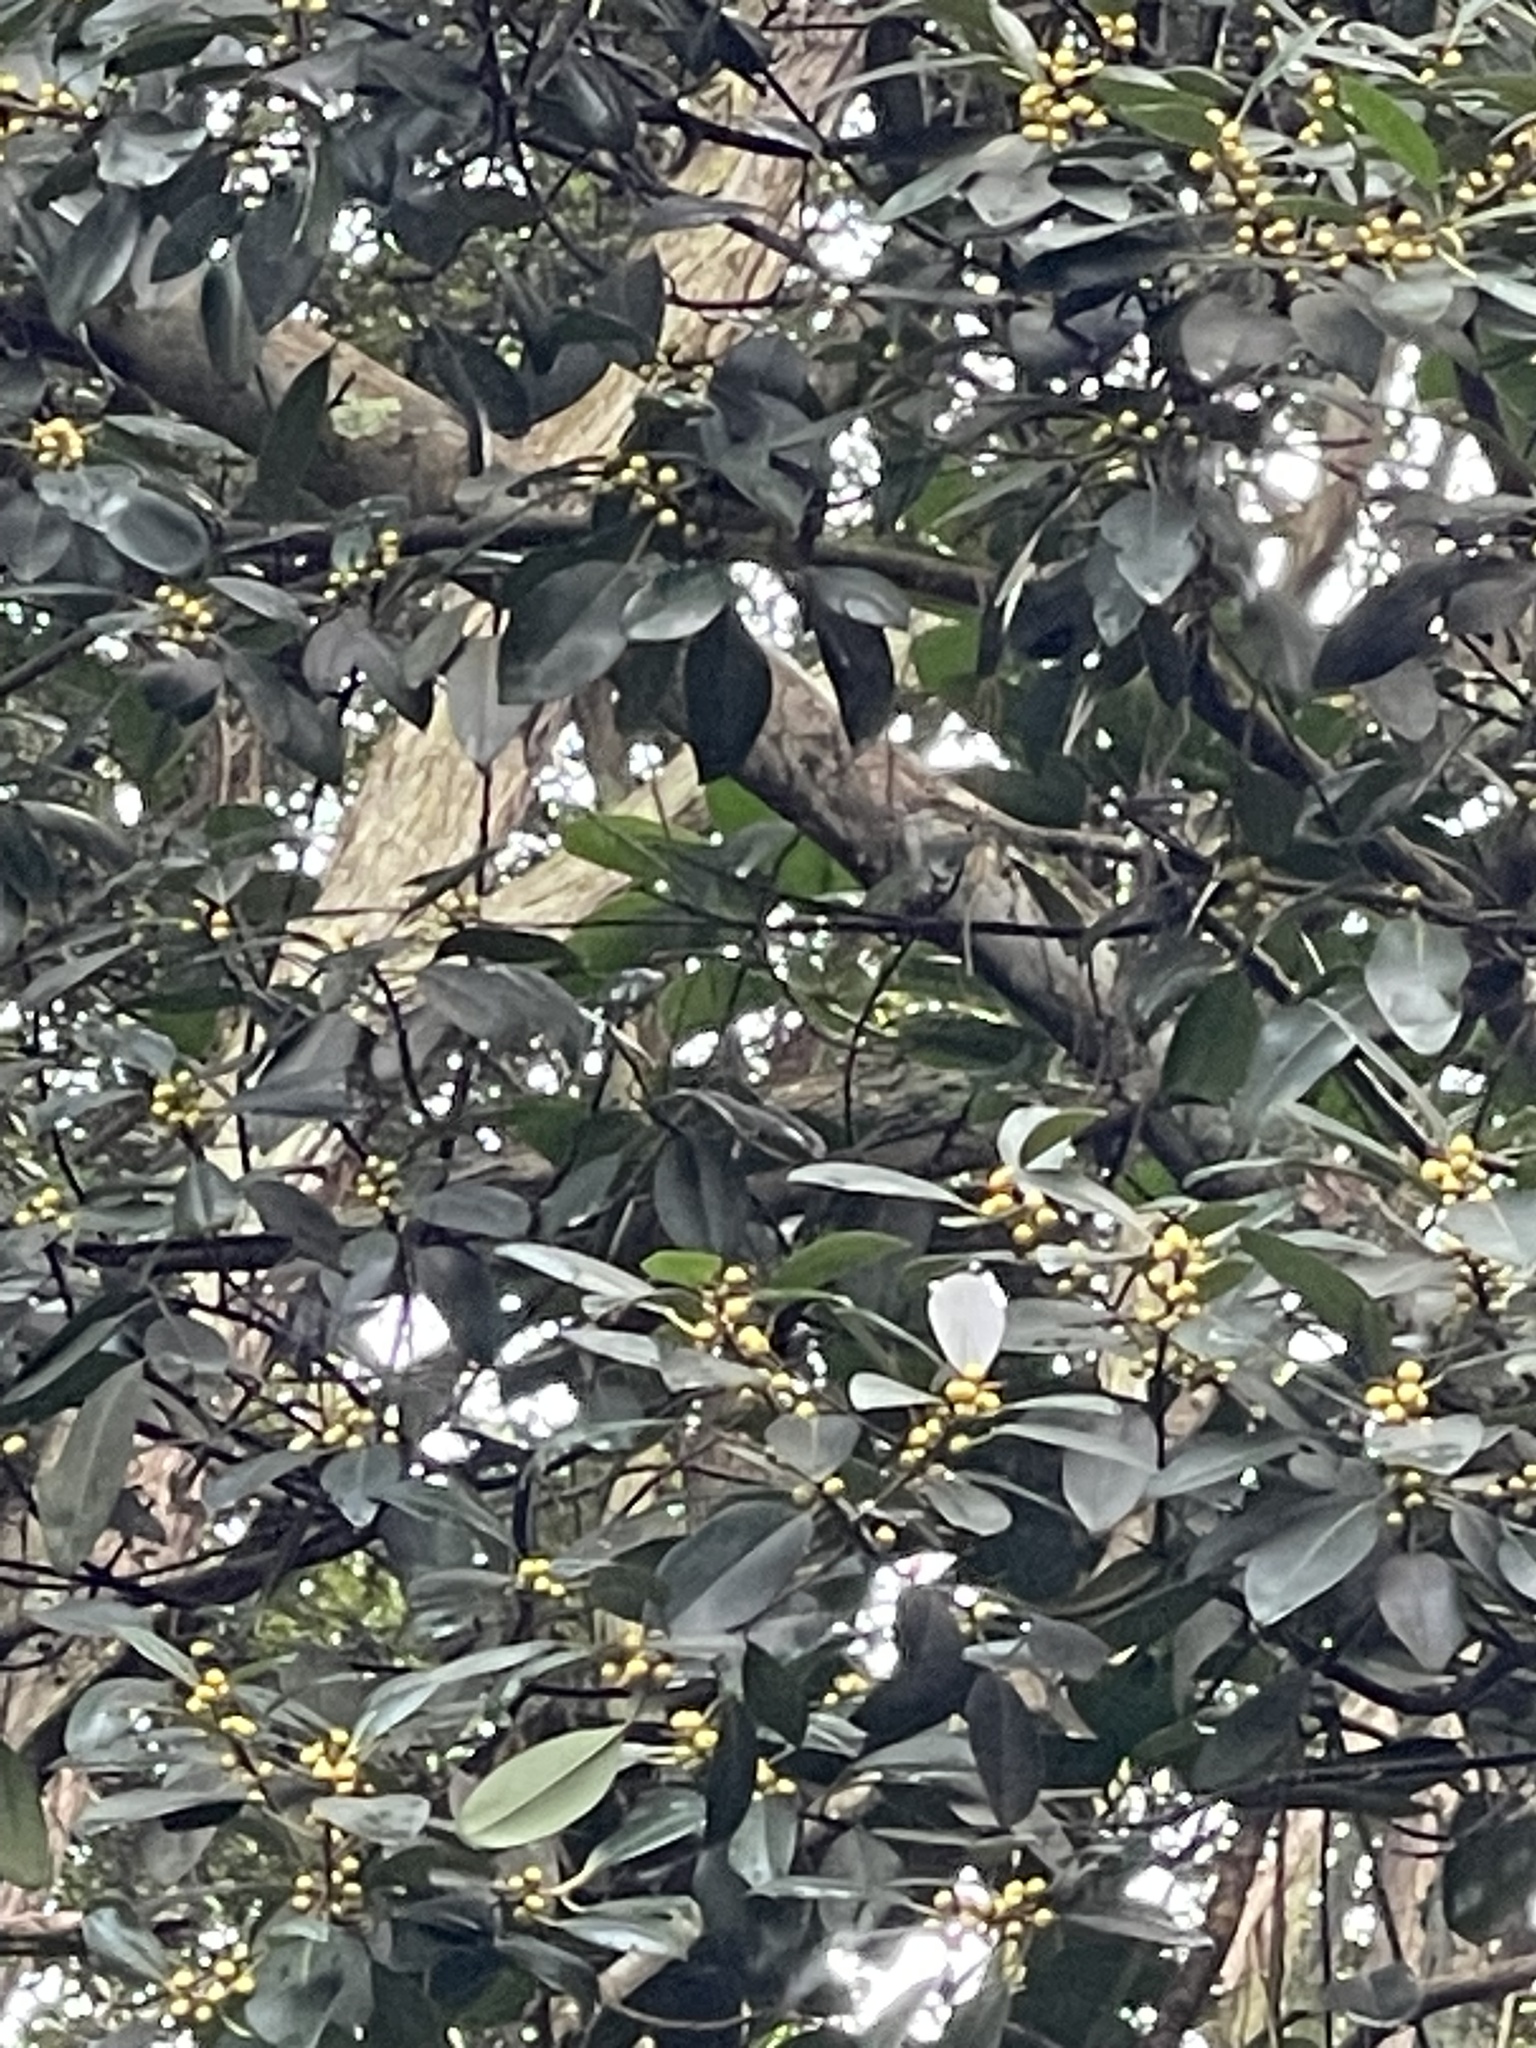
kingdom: Plantae
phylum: Tracheophyta
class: Magnoliopsida
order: Rosales
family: Moraceae
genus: Ficus
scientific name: Ficus rubiginosa
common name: Port jackson fig
